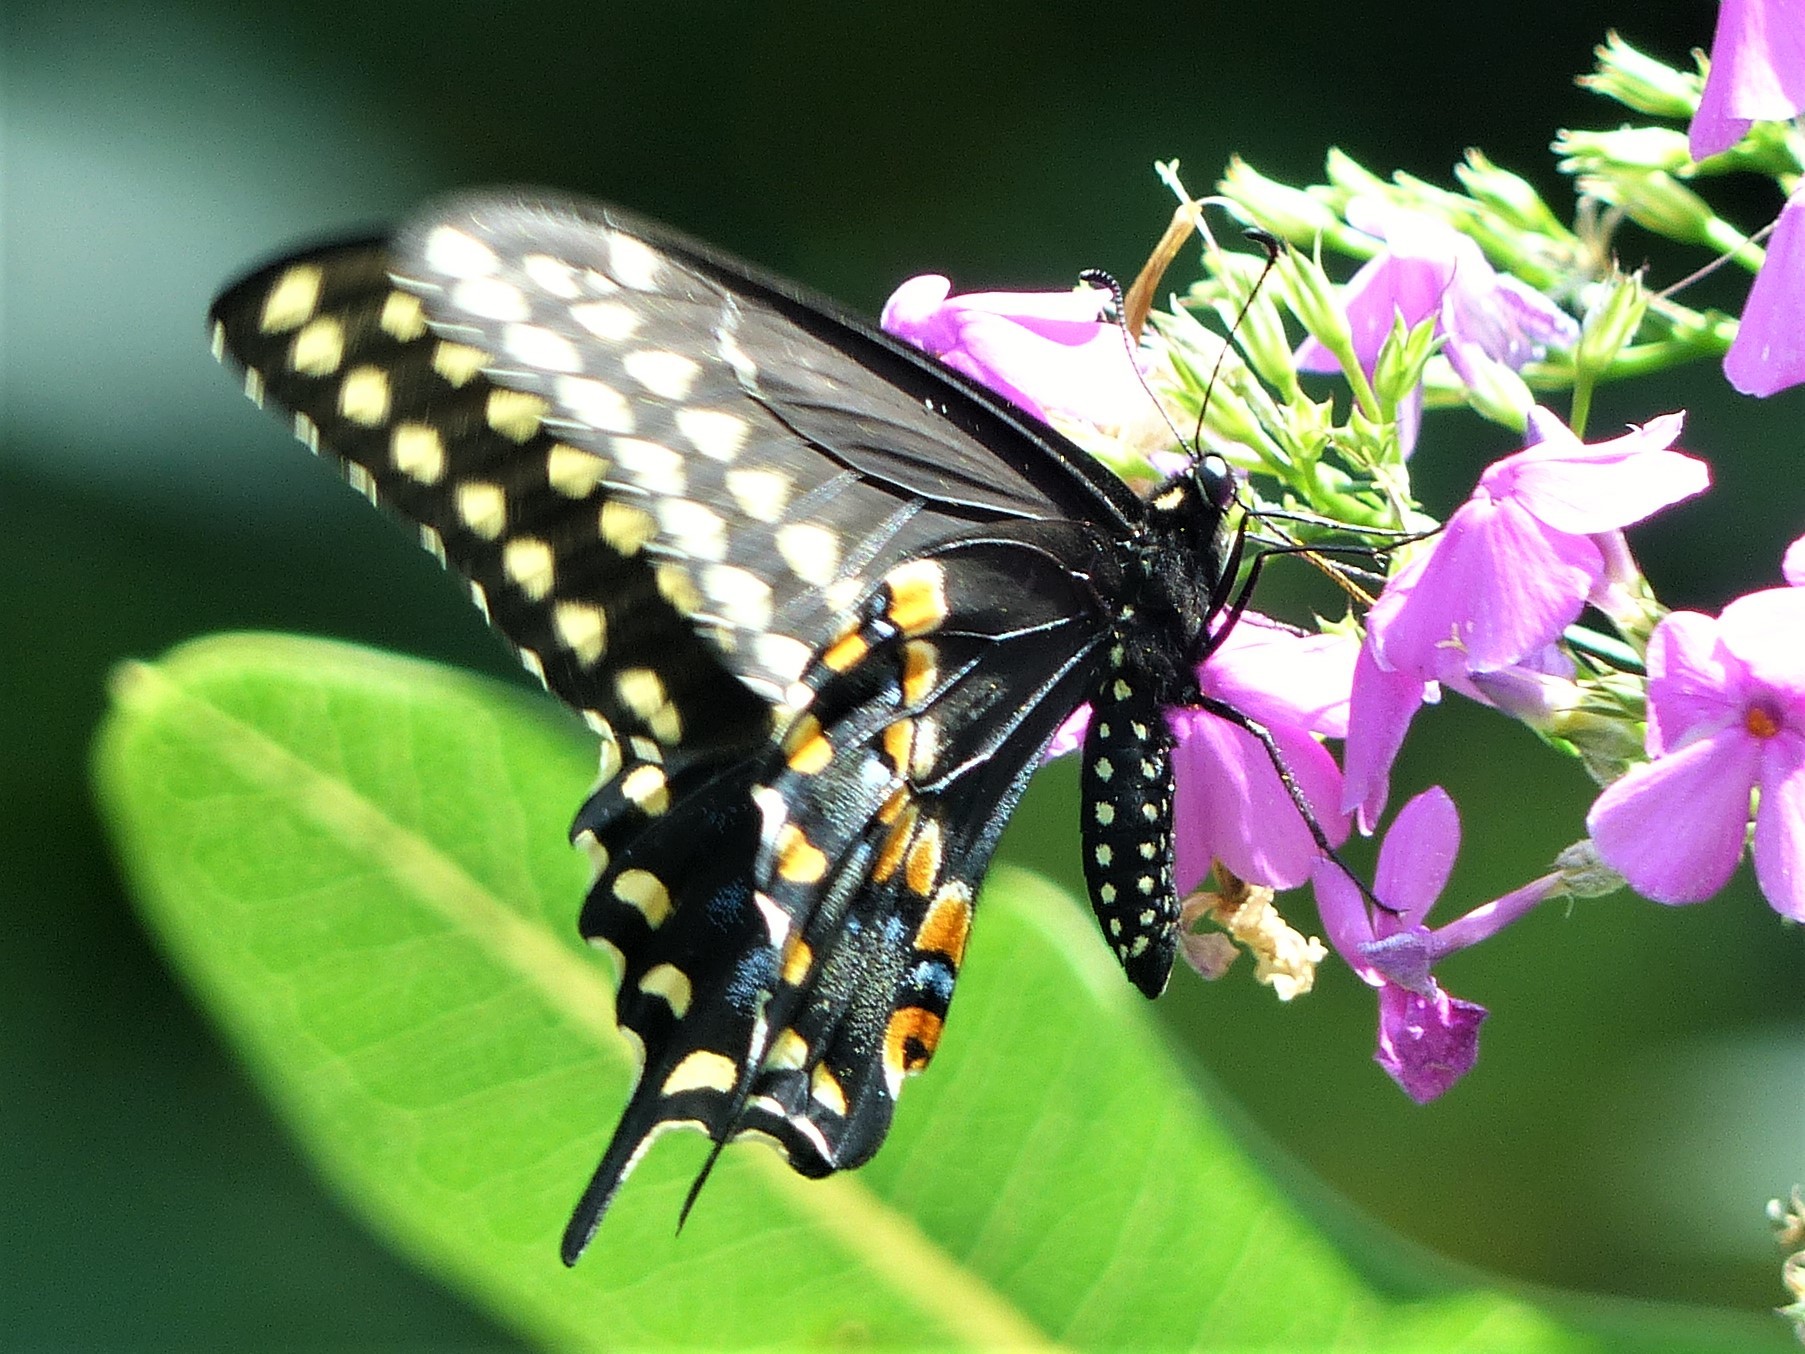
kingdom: Animalia
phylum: Arthropoda
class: Insecta
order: Lepidoptera
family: Papilionidae
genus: Papilio
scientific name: Papilio polyxenes
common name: Black swallowtail
